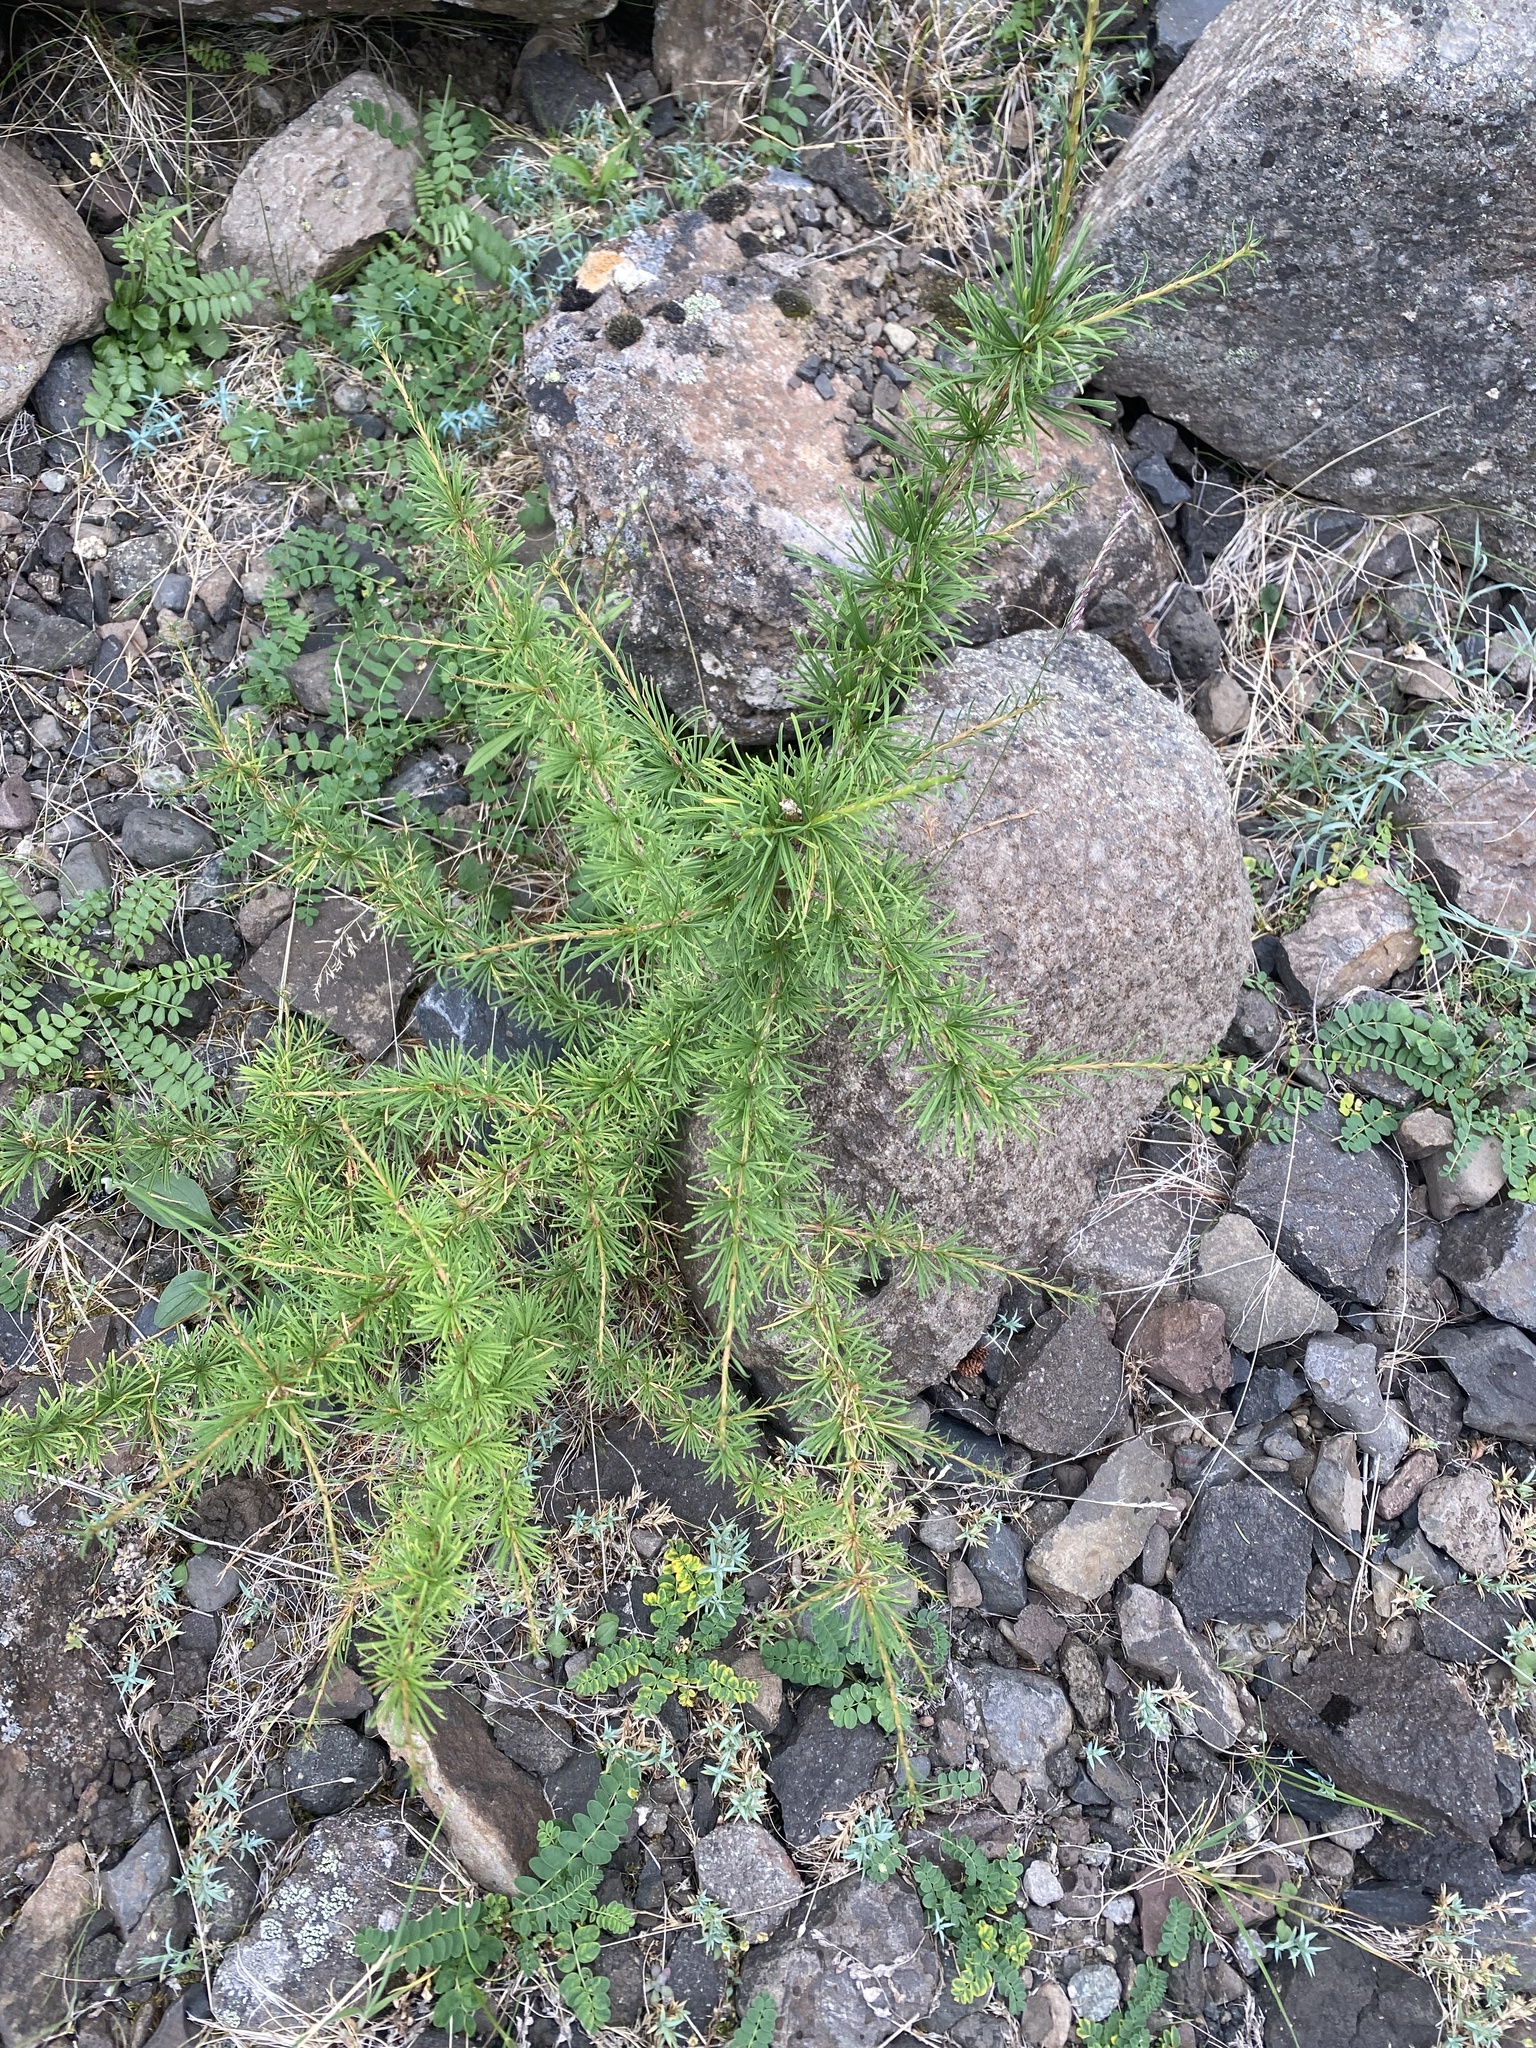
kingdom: Plantae
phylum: Tracheophyta
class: Pinopsida
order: Pinales
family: Pinaceae
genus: Larix
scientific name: Larix gmelinii
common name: Dahurian larch
